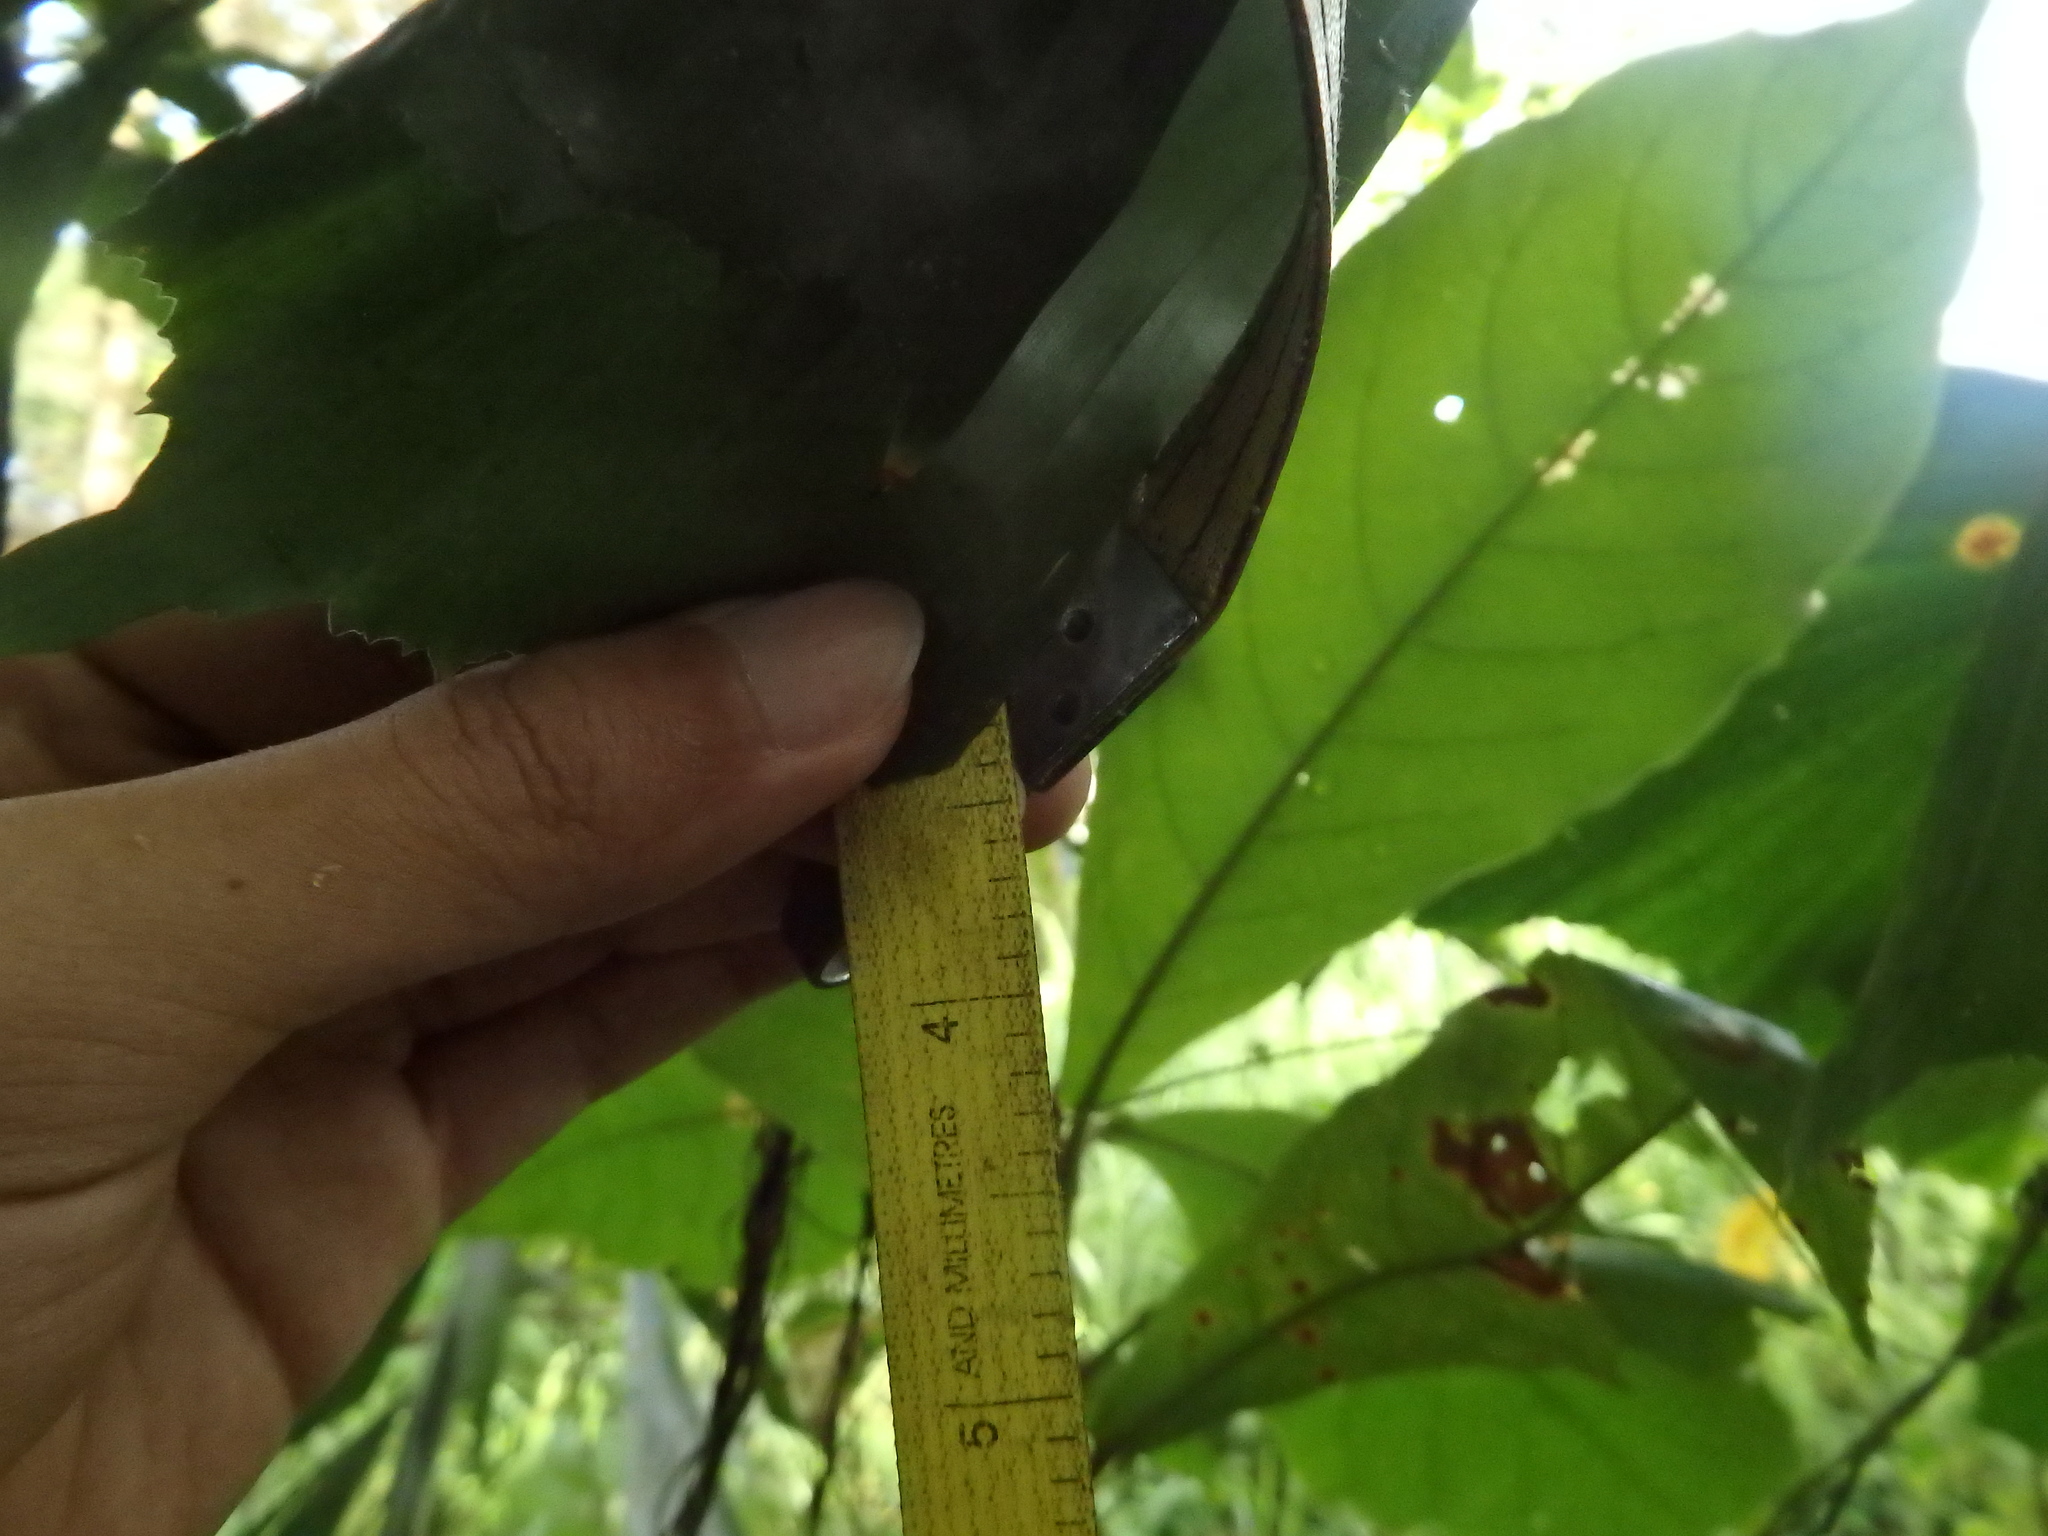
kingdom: Plantae
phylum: Tracheophyta
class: Liliopsida
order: Arecales
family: Arecaceae
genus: Caryota
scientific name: Caryota mitis
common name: Burmese fishtail palm
